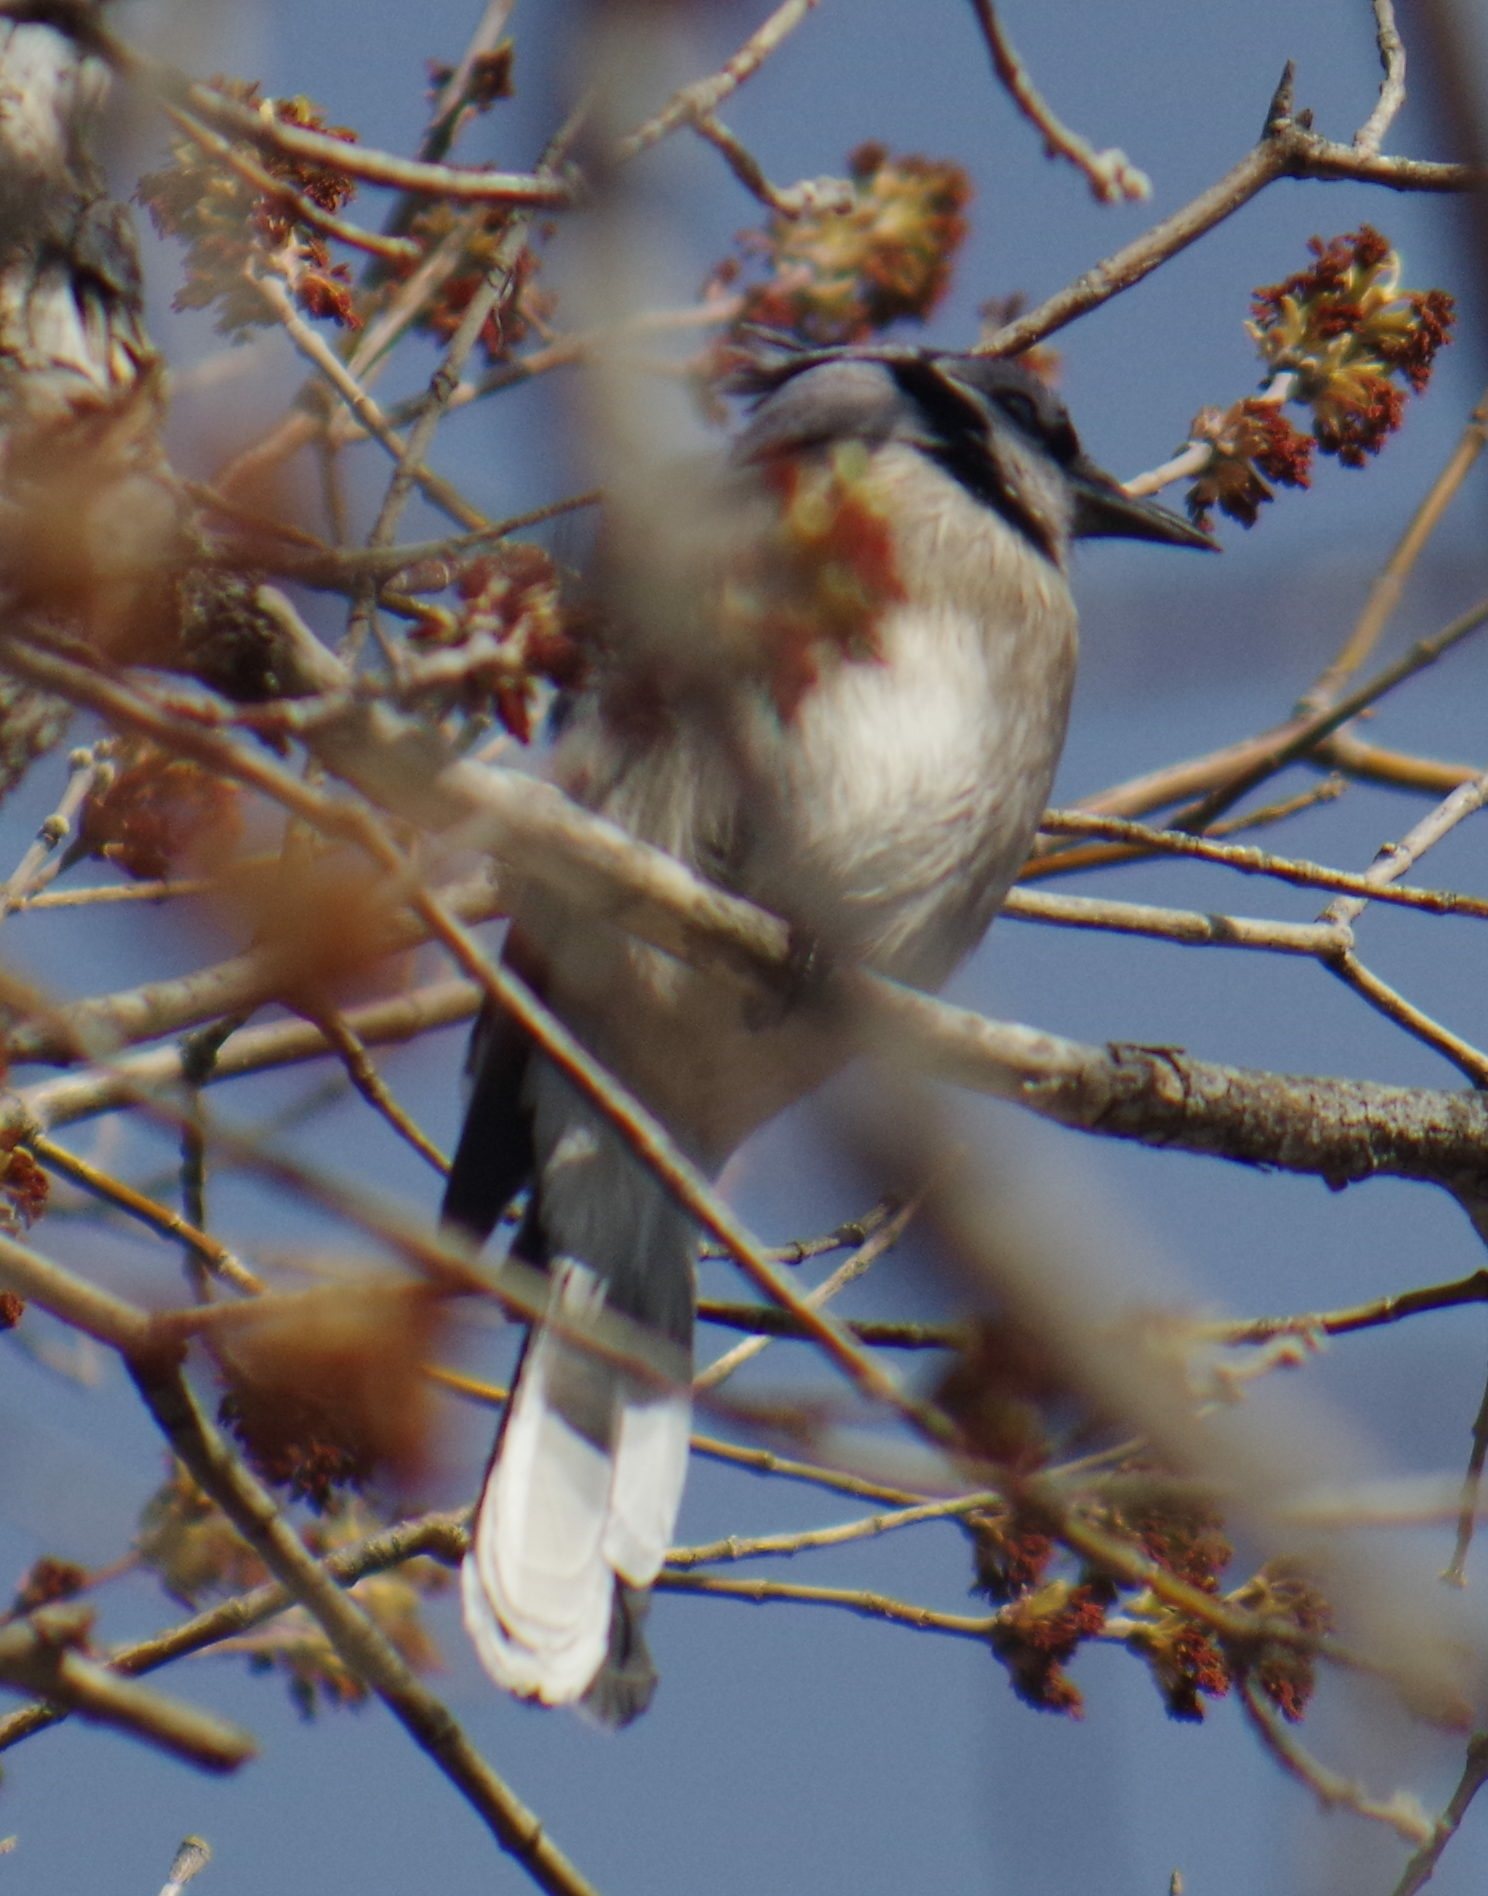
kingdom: Animalia
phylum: Chordata
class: Aves
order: Passeriformes
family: Corvidae
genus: Cyanocitta
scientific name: Cyanocitta cristata
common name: Blue jay
